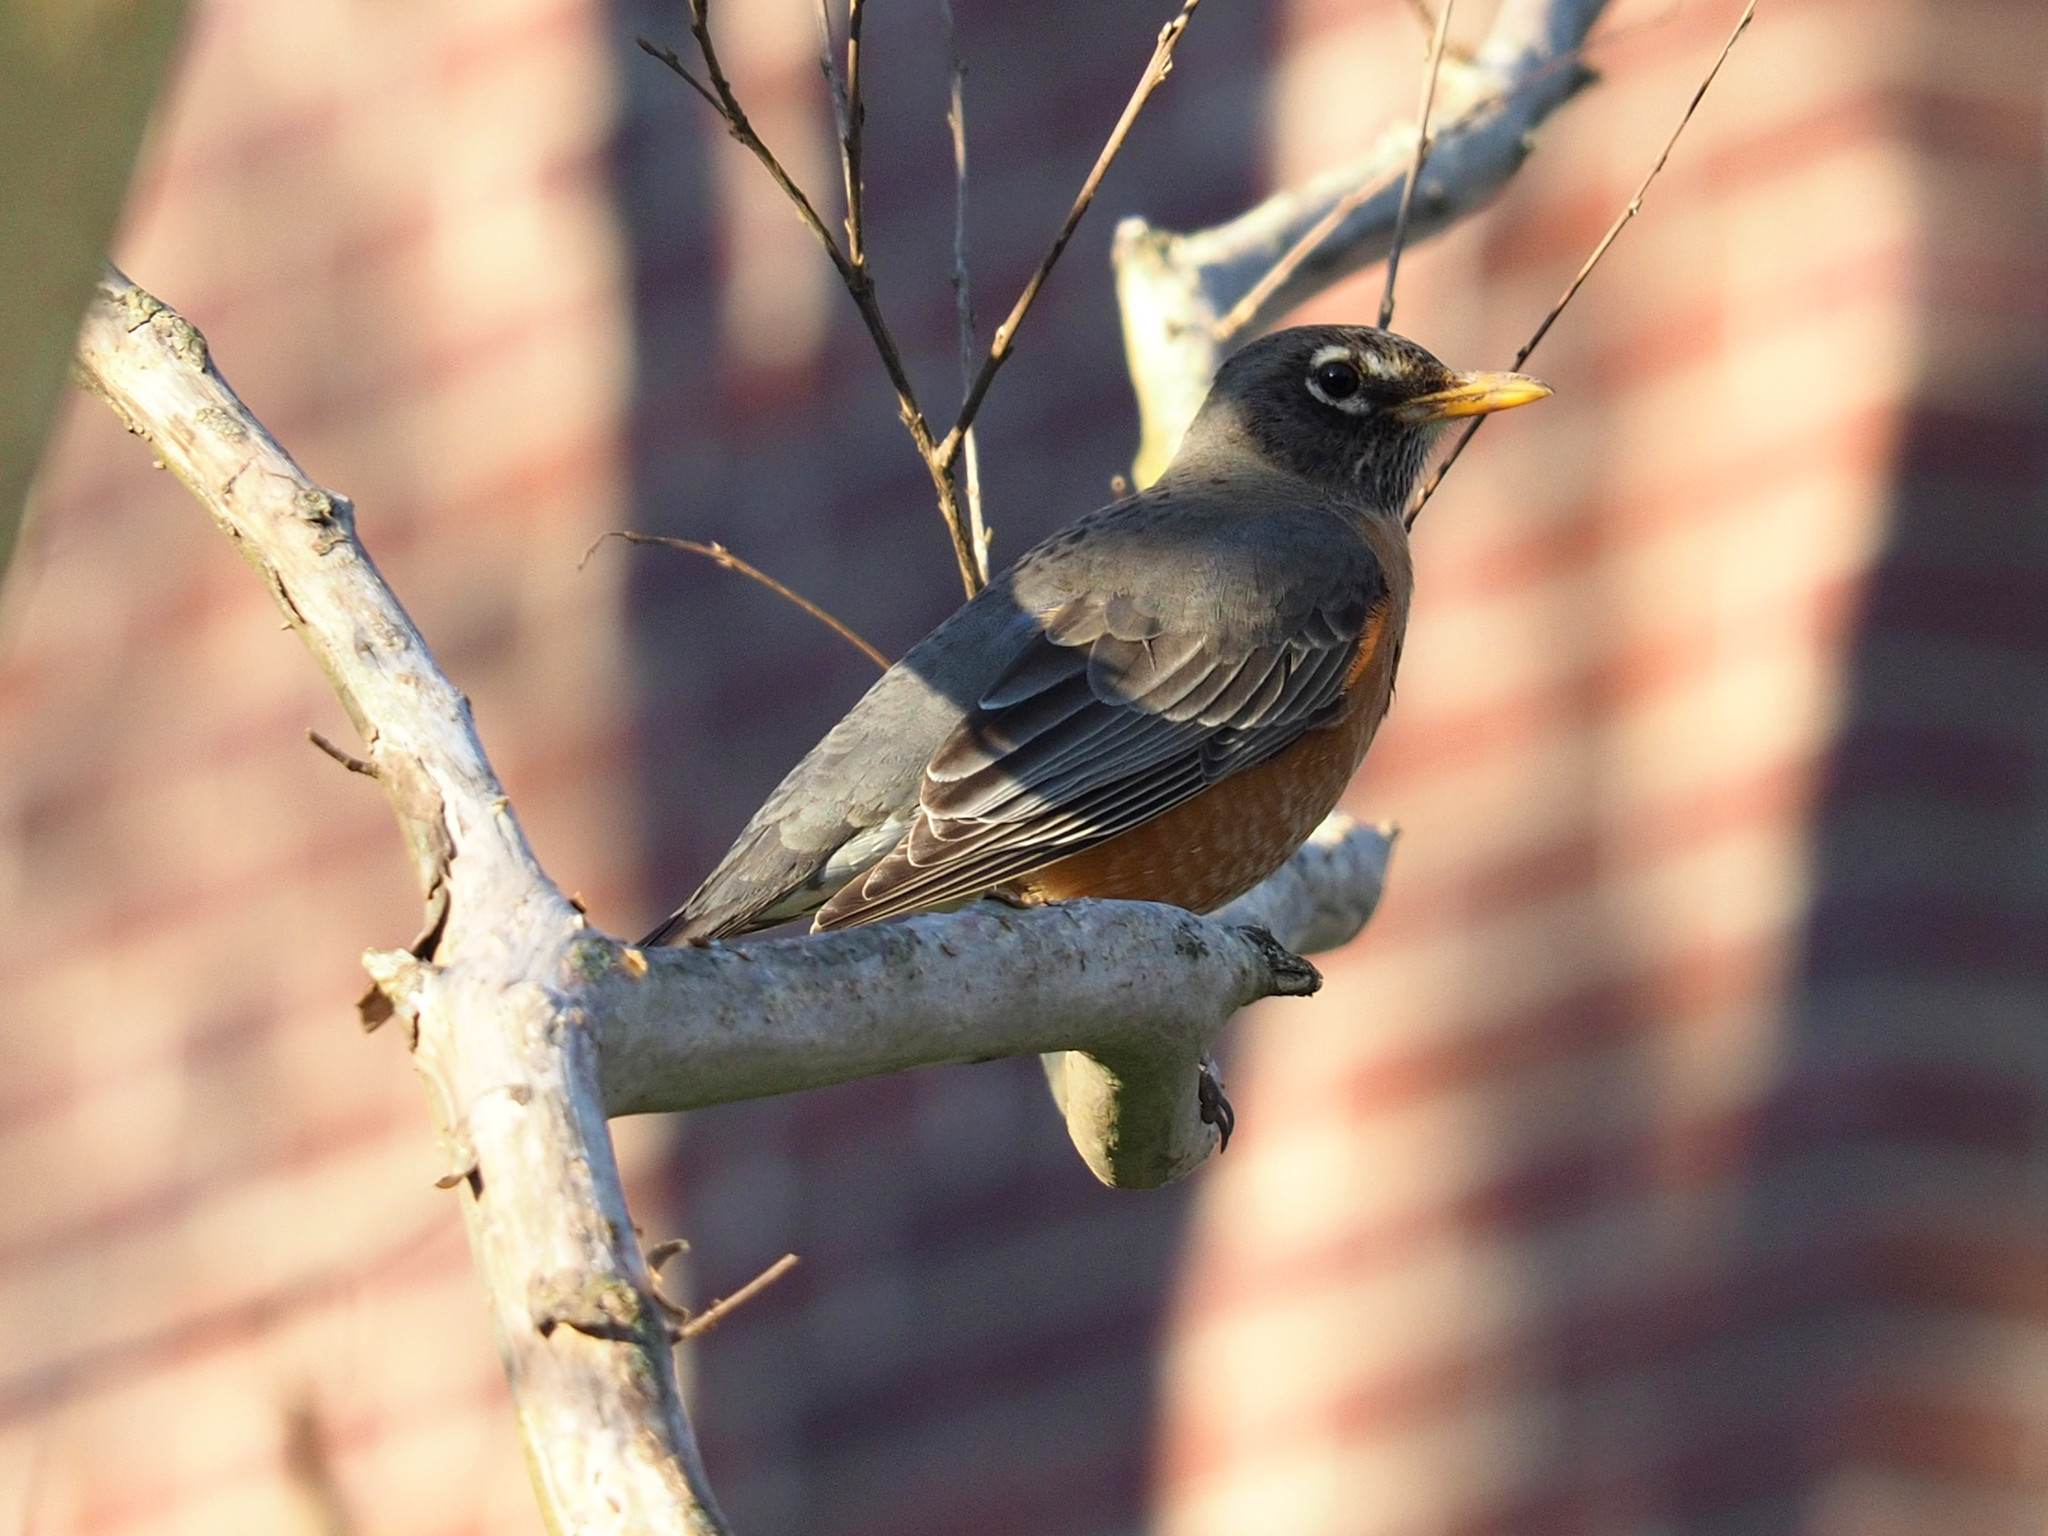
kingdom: Animalia
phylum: Chordata
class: Aves
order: Passeriformes
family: Turdidae
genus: Turdus
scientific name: Turdus migratorius
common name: American robin
